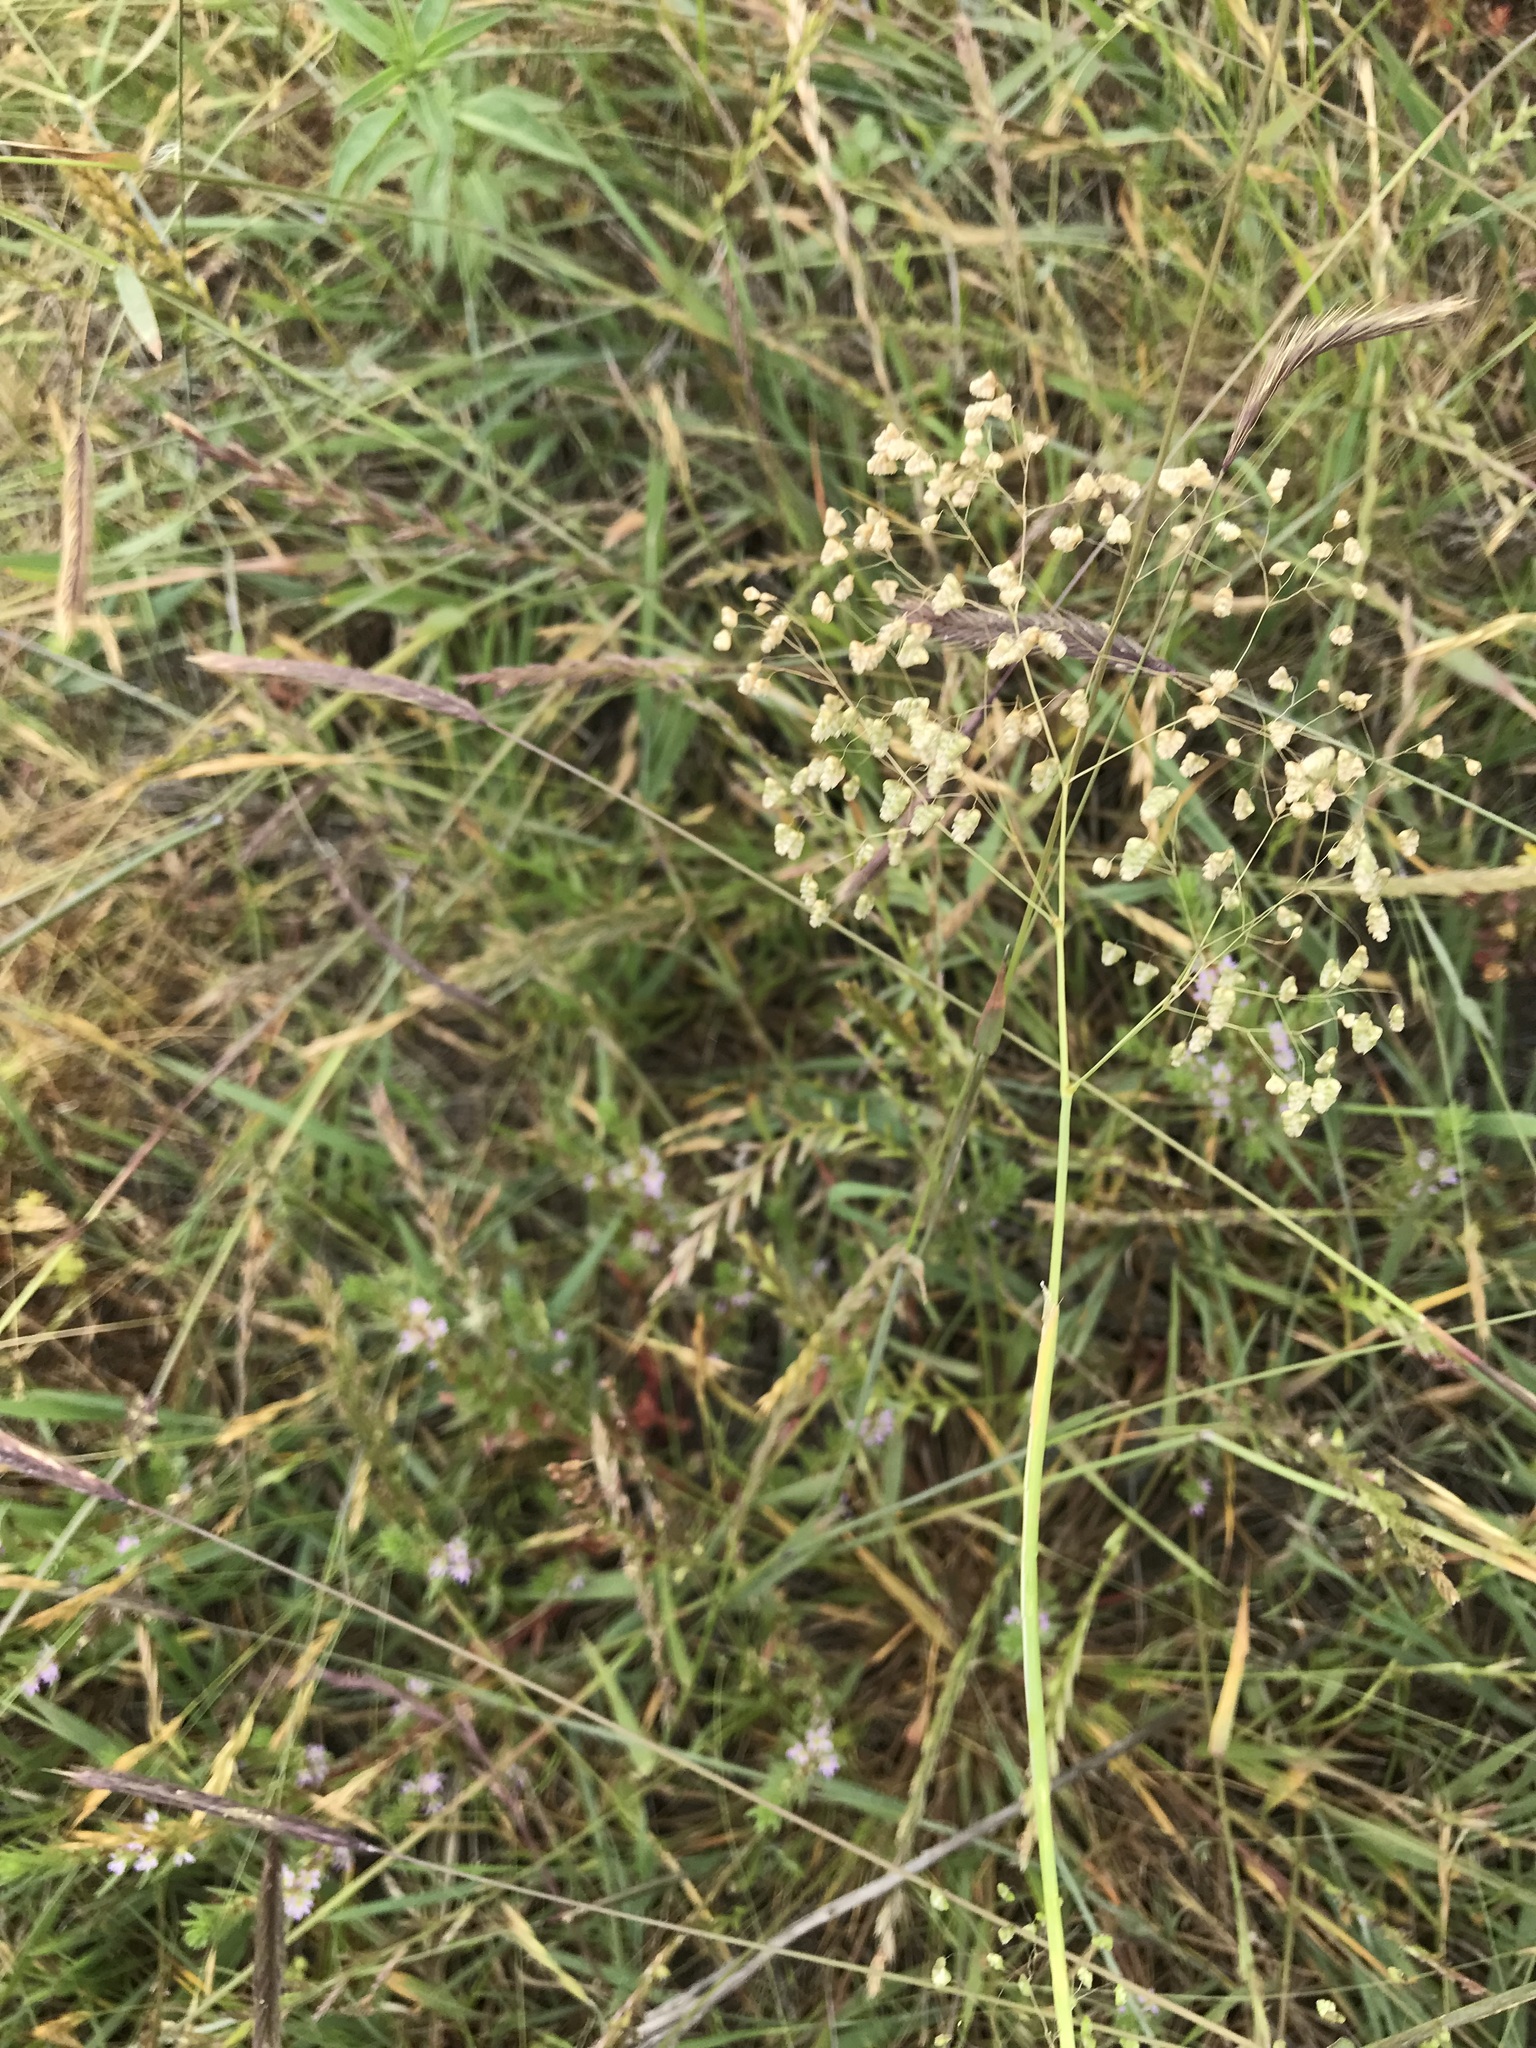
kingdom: Plantae
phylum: Tracheophyta
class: Liliopsida
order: Poales
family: Poaceae
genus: Briza
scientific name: Briza minor
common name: Lesser quaking-grass
